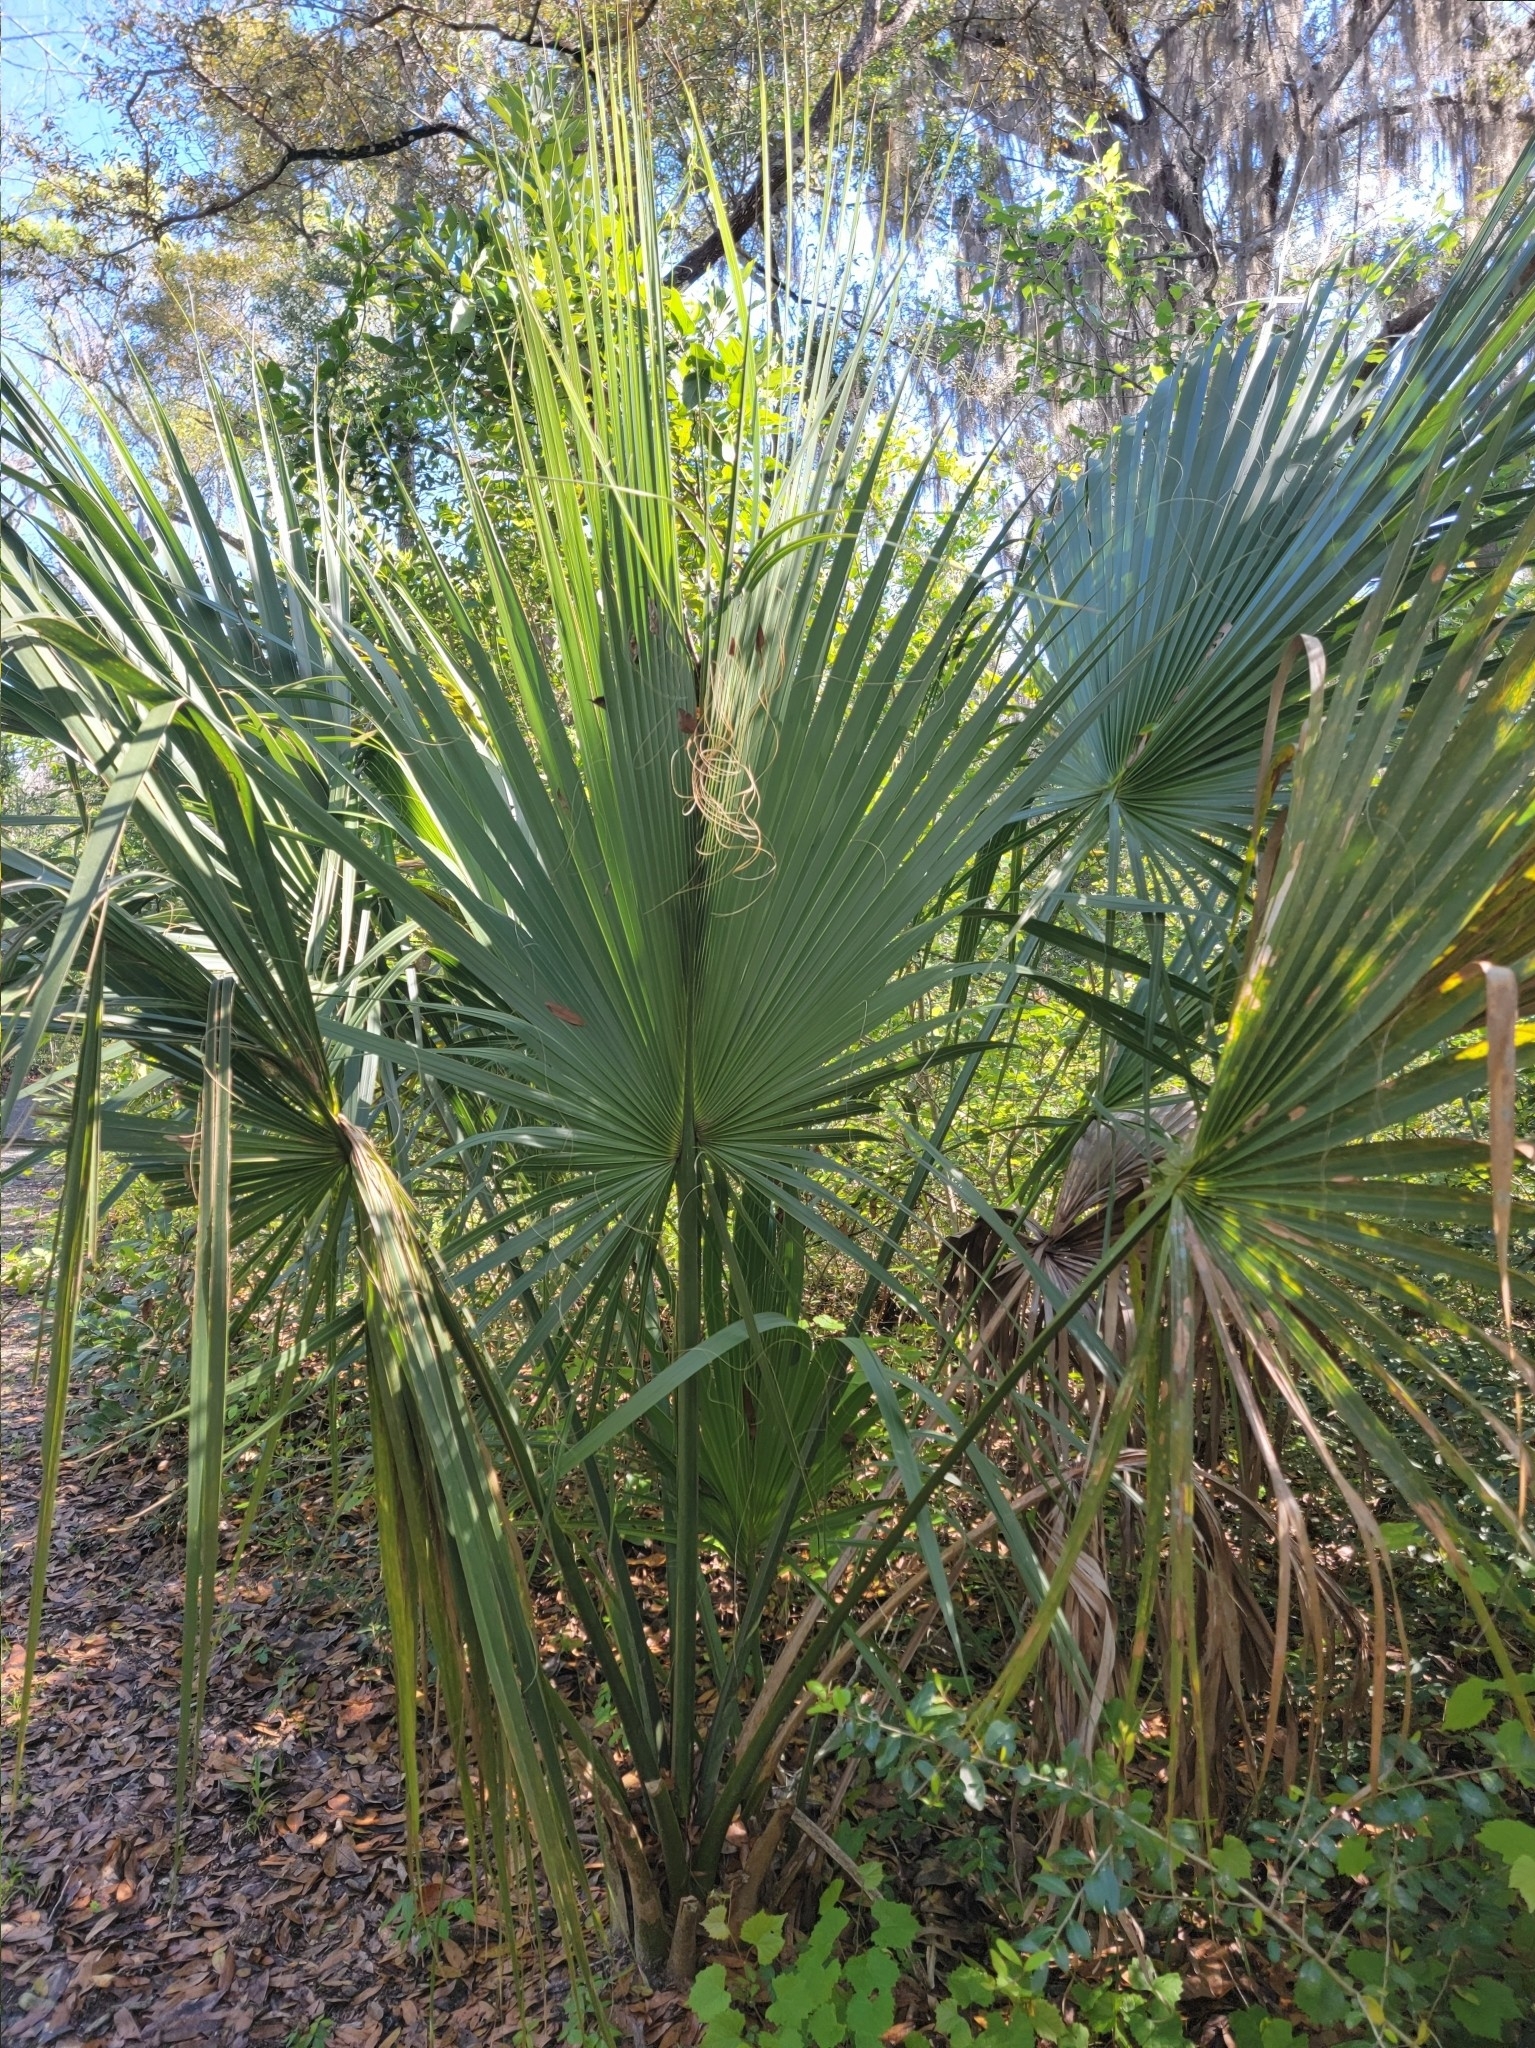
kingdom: Plantae
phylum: Tracheophyta
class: Liliopsida
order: Arecales
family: Arecaceae
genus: Sabal
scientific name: Sabal palmetto
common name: Blue palmetto
